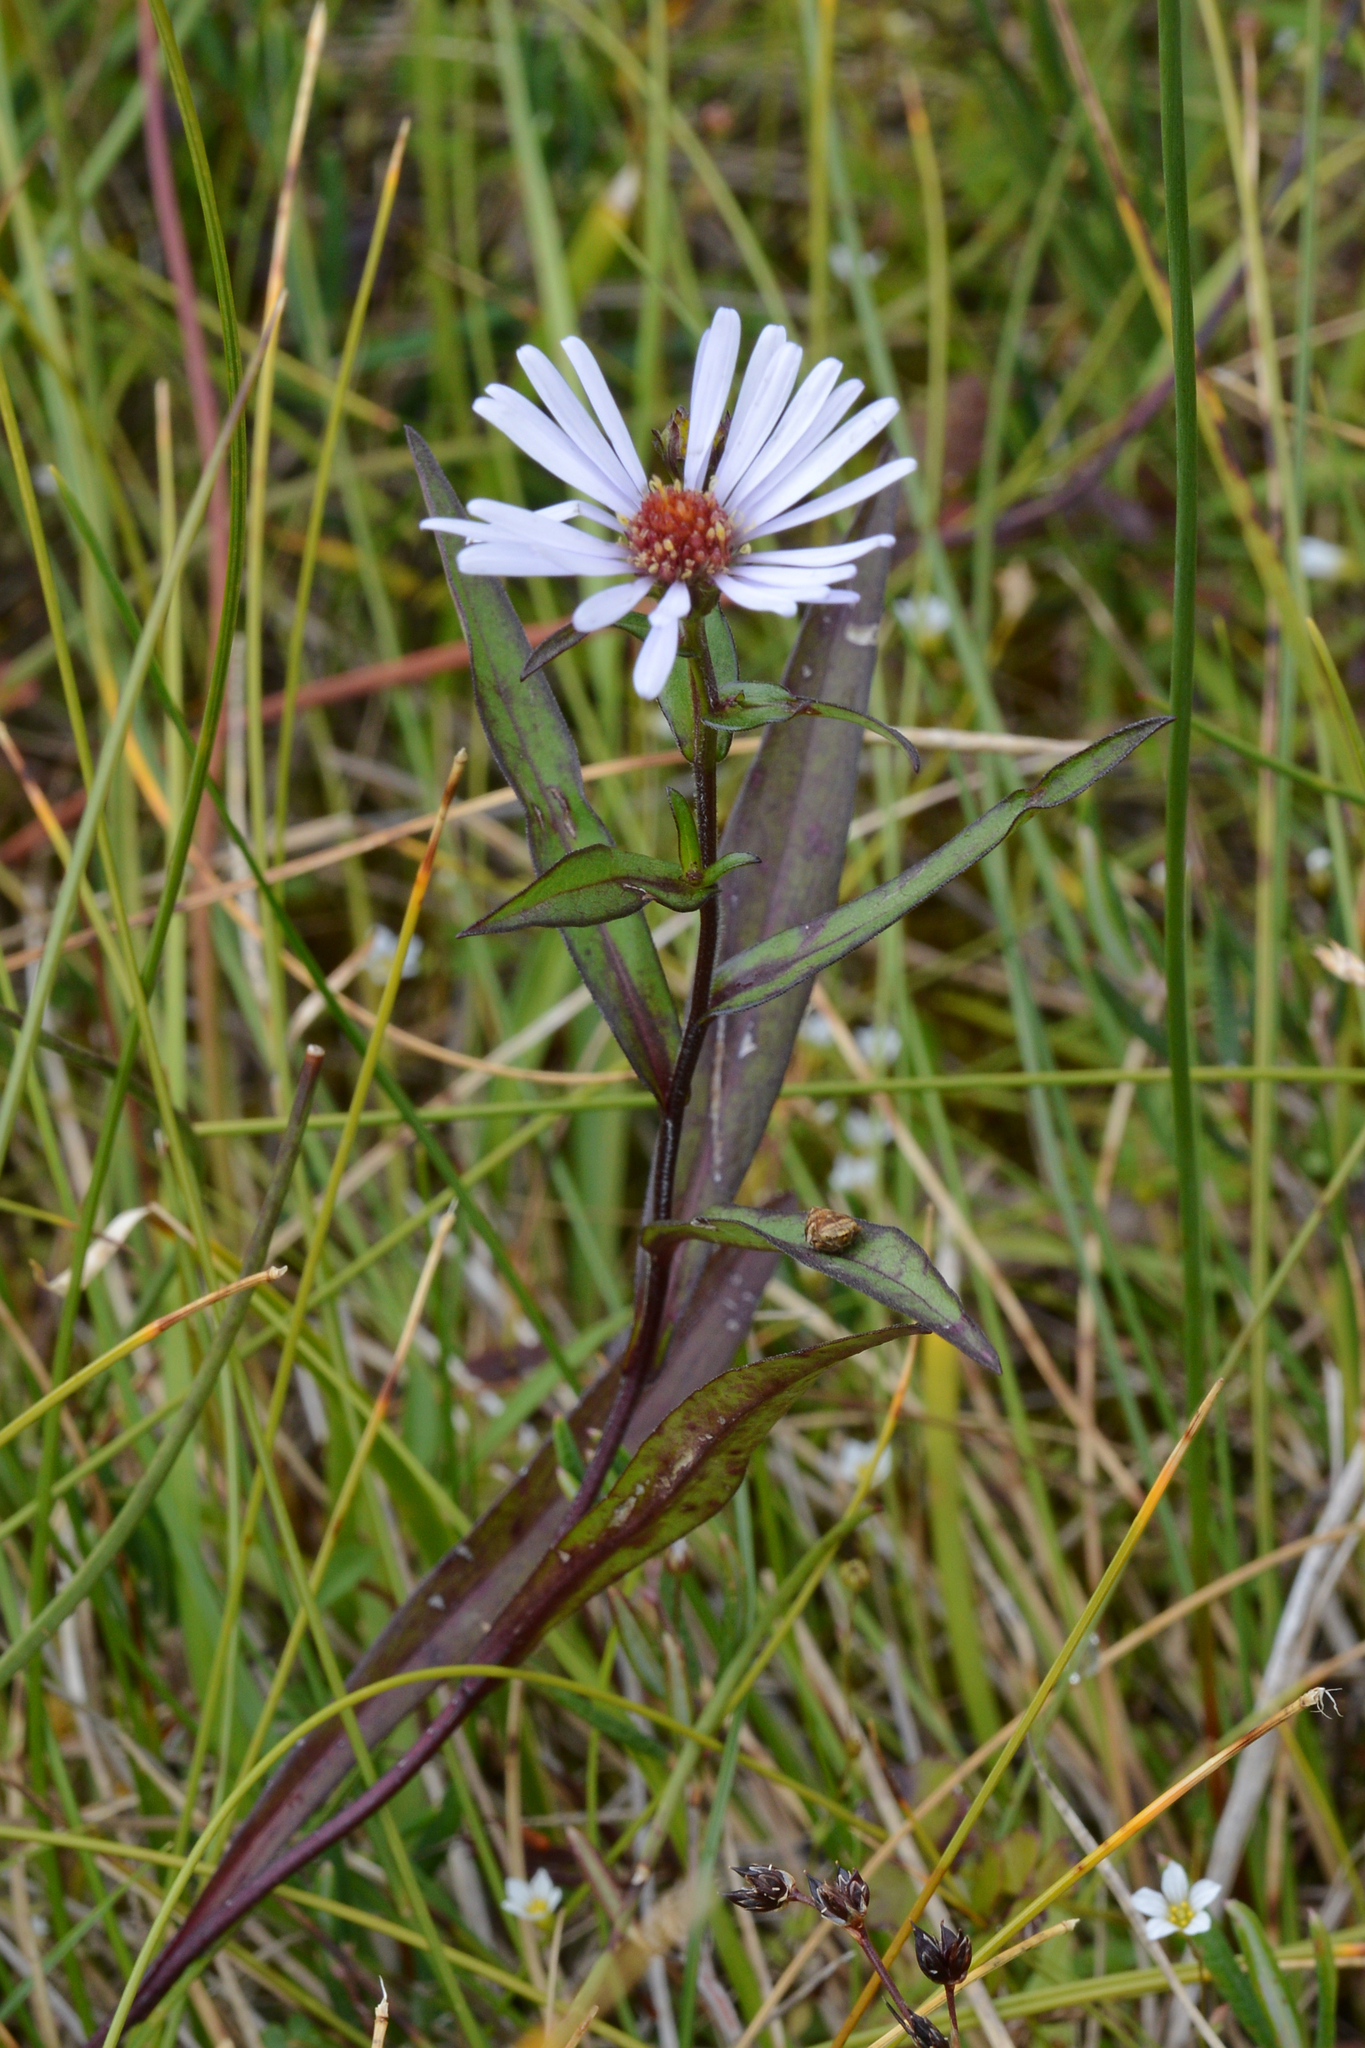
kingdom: Plantae
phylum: Tracheophyta
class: Magnoliopsida
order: Asterales
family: Asteraceae
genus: Symphyotrichum
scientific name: Symphyotrichum novi-belgii
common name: Michaelmas daisy
